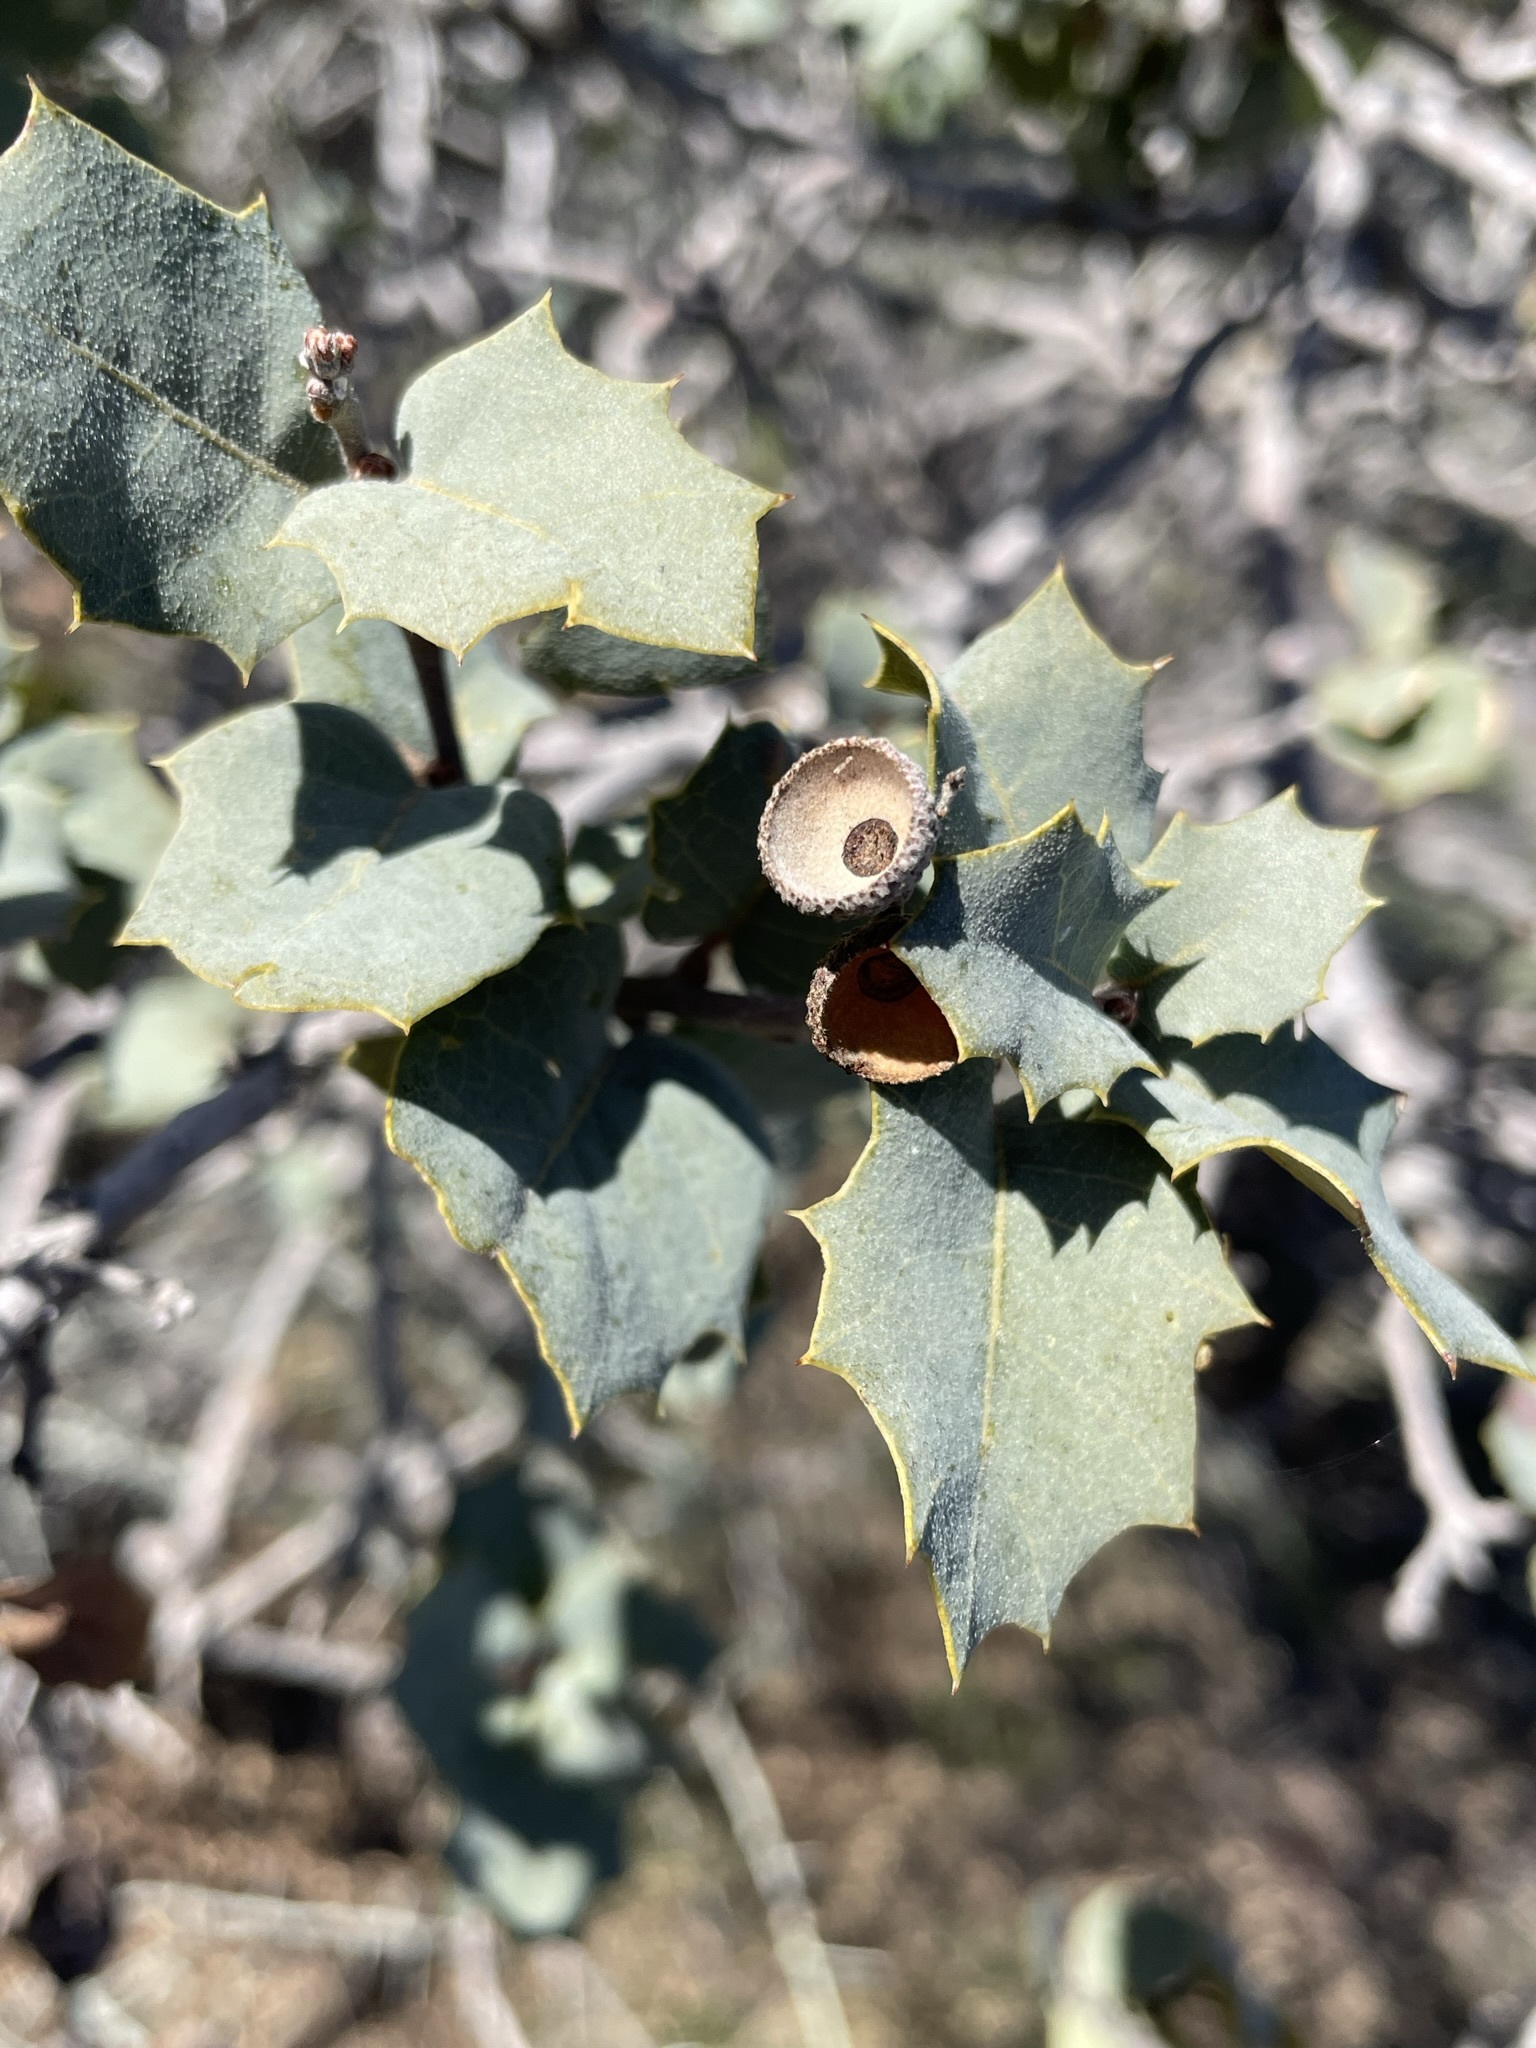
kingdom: Plantae
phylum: Tracheophyta
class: Magnoliopsida
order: Fagales
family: Fagaceae
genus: Quercus
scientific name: Quercus turbinella
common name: Sonoran scrub oak
